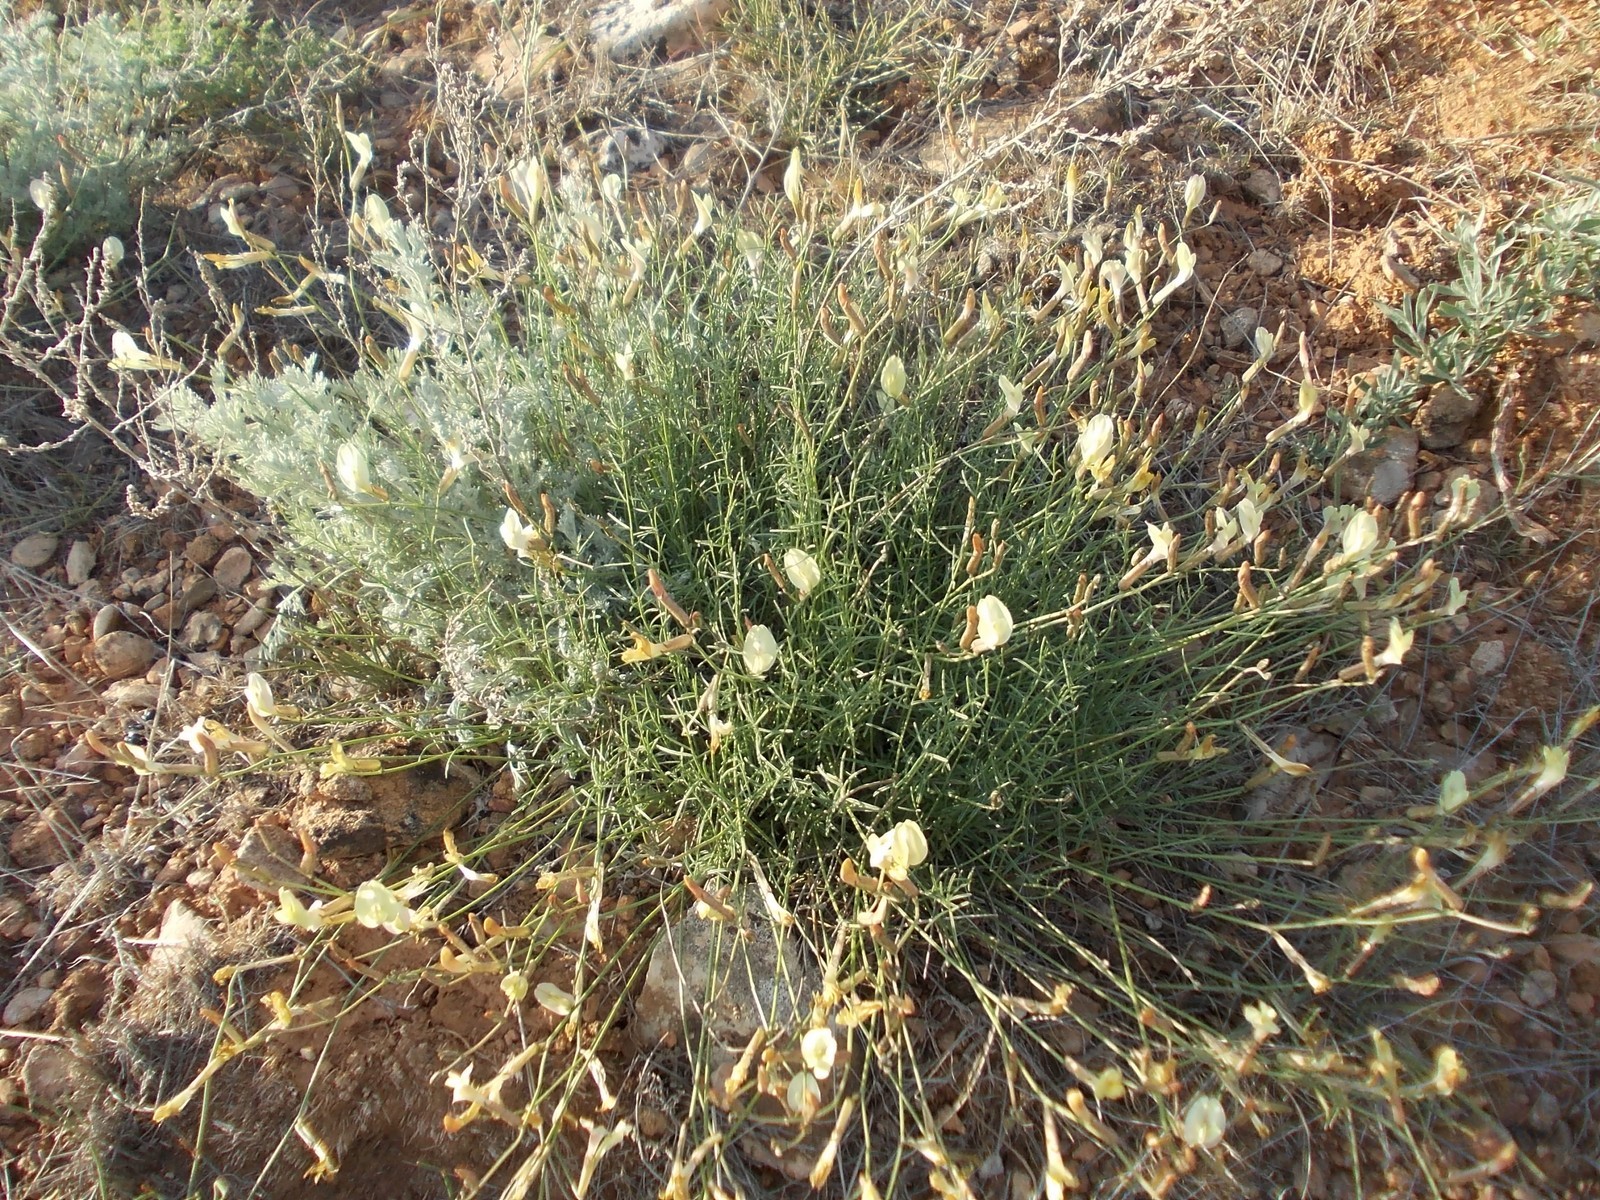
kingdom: Plantae
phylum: Tracheophyta
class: Magnoliopsida
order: Fabales
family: Fabaceae
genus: Astragalus
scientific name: Astragalus ucrainicus
